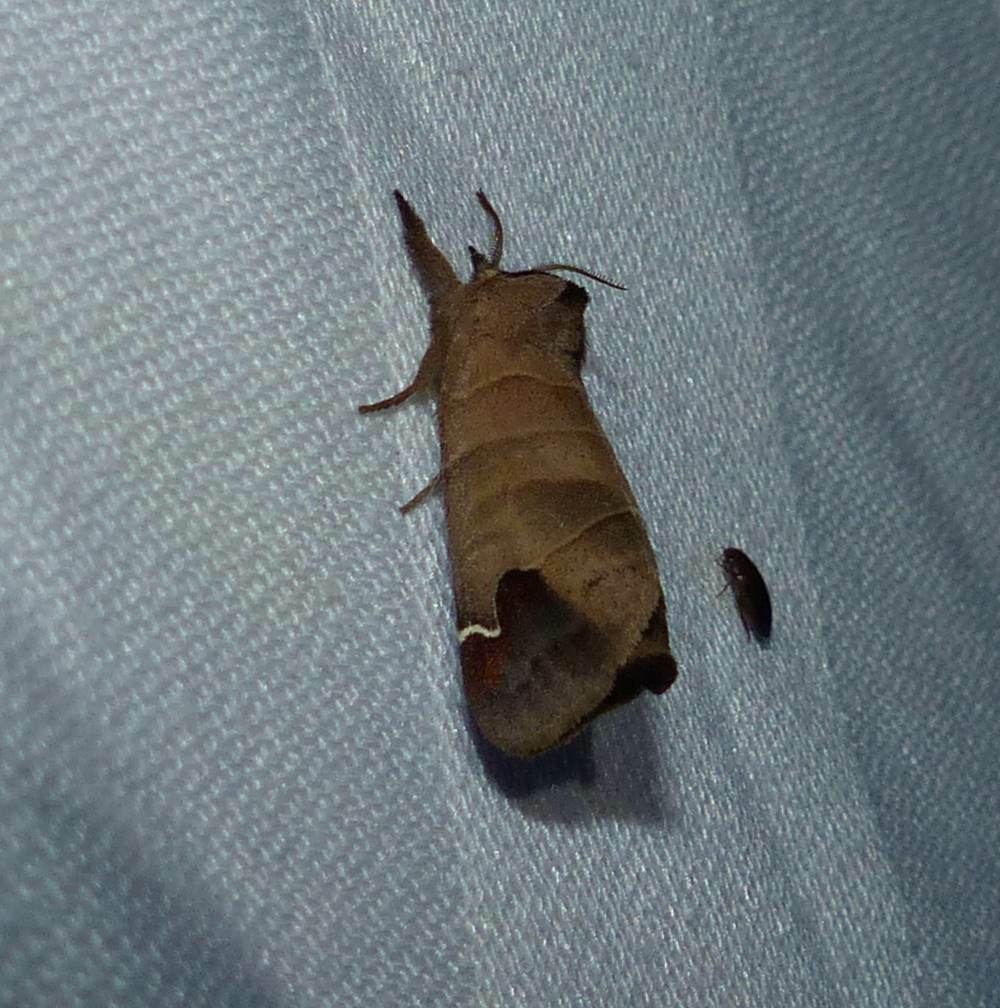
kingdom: Animalia
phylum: Arthropoda
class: Insecta
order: Lepidoptera
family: Notodontidae
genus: Clostera
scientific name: Clostera albosigma
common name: Sigmoid prominent
